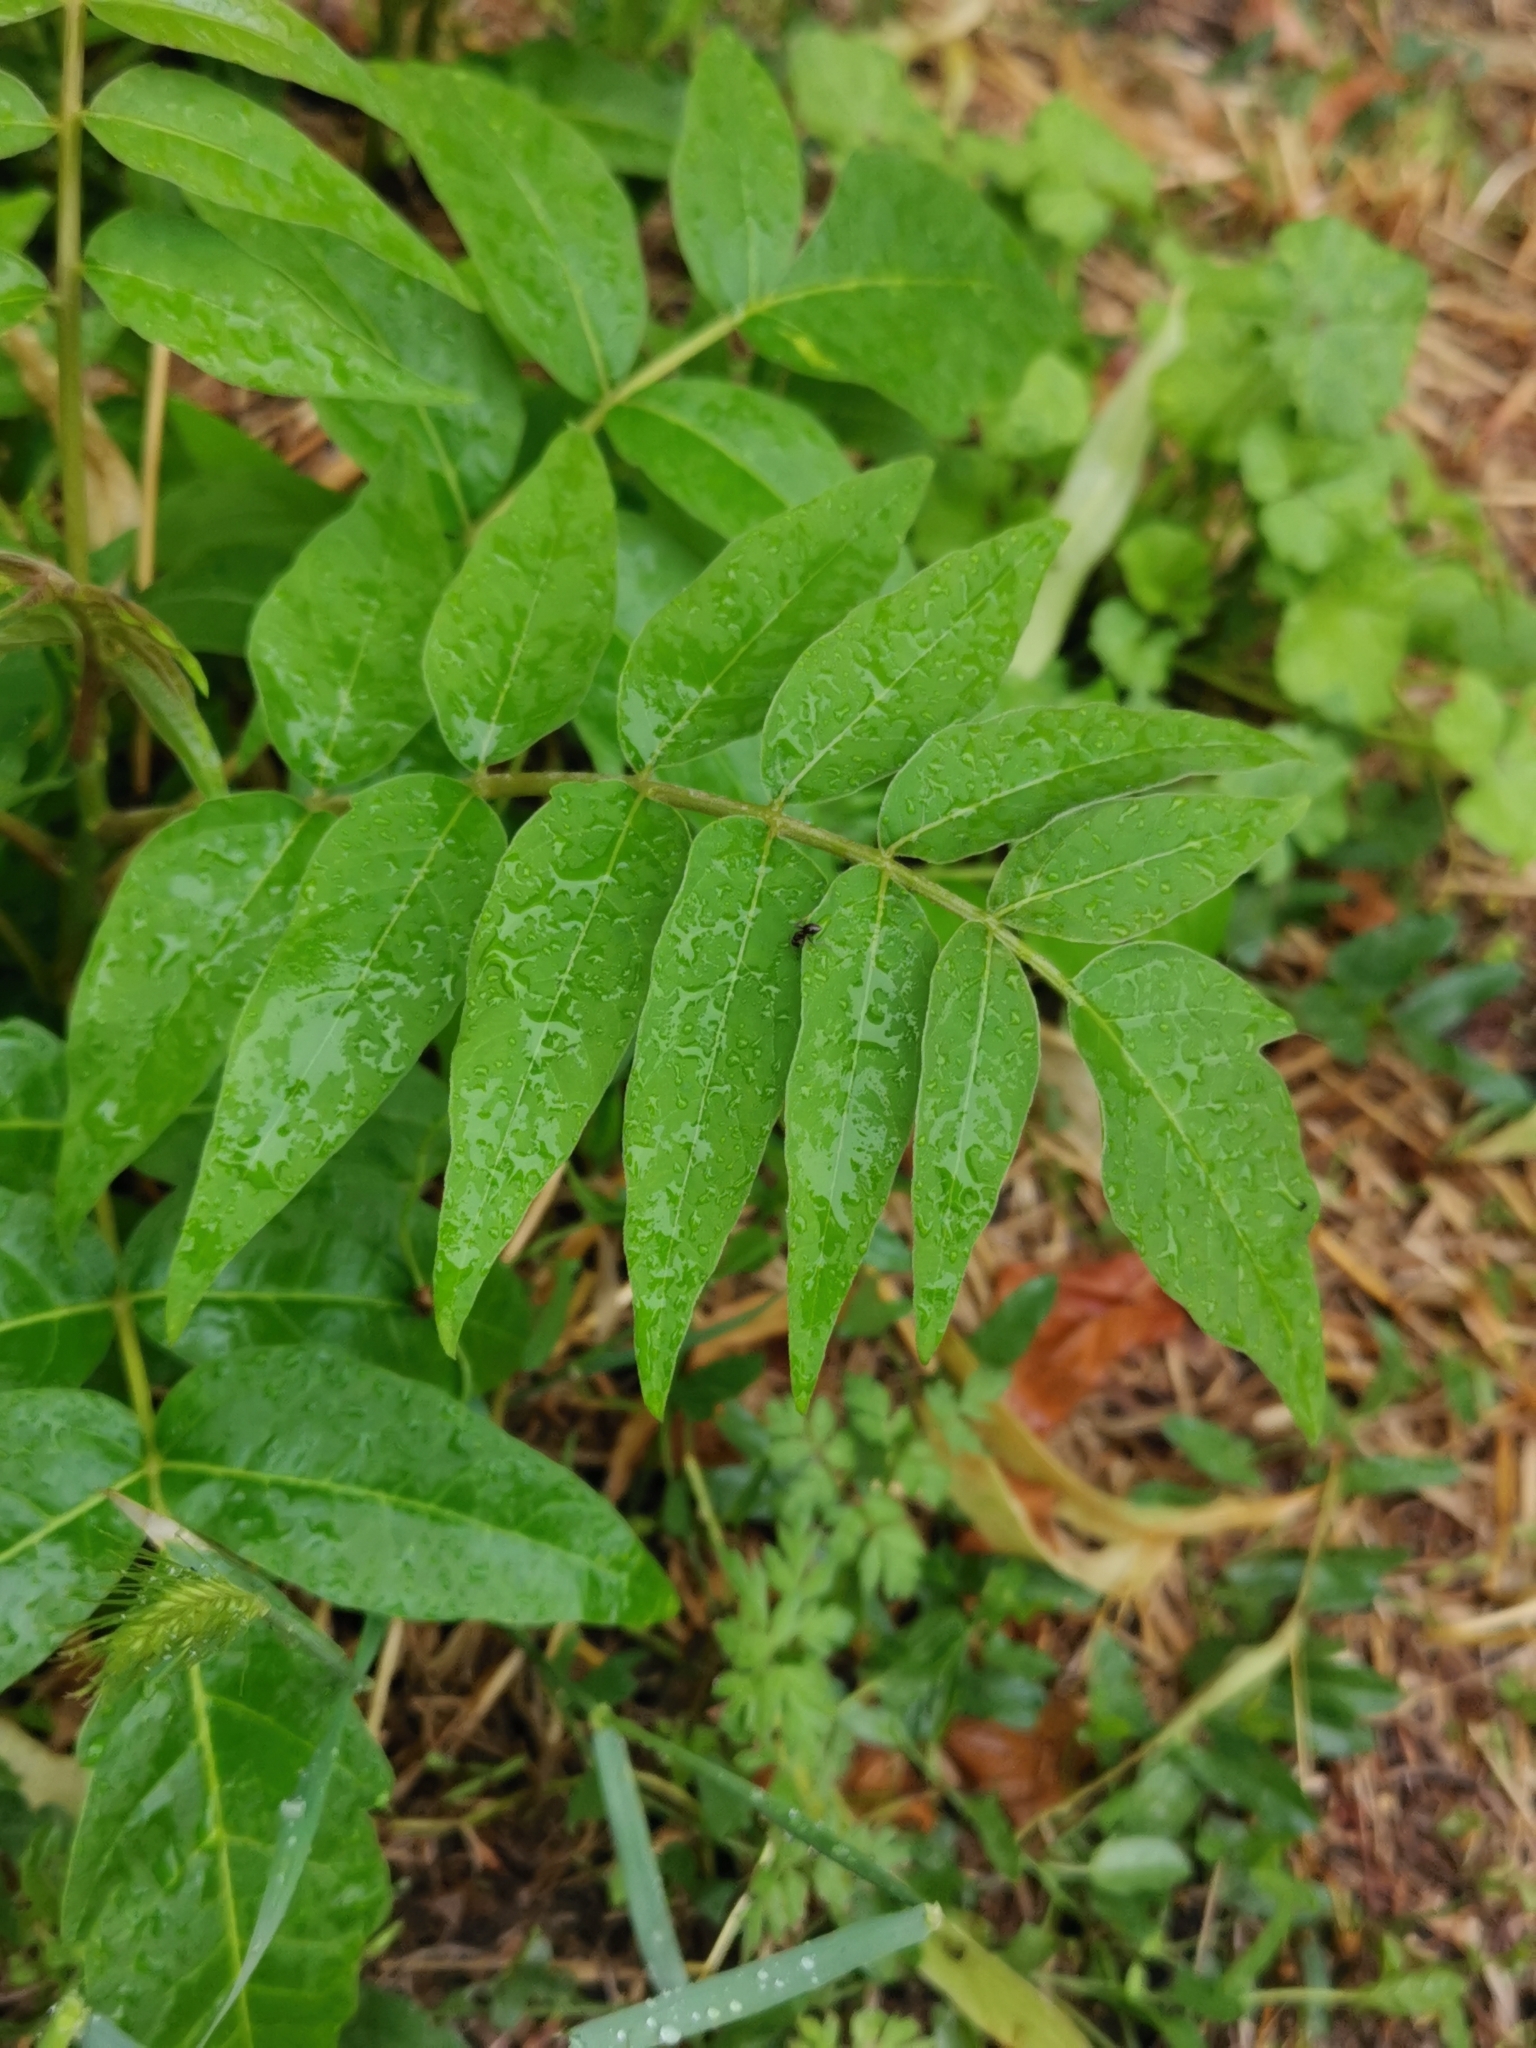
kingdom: Plantae
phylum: Tracheophyta
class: Magnoliopsida
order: Sapindales
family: Simaroubaceae
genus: Ailanthus
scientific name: Ailanthus altissima
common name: Tree-of-heaven
